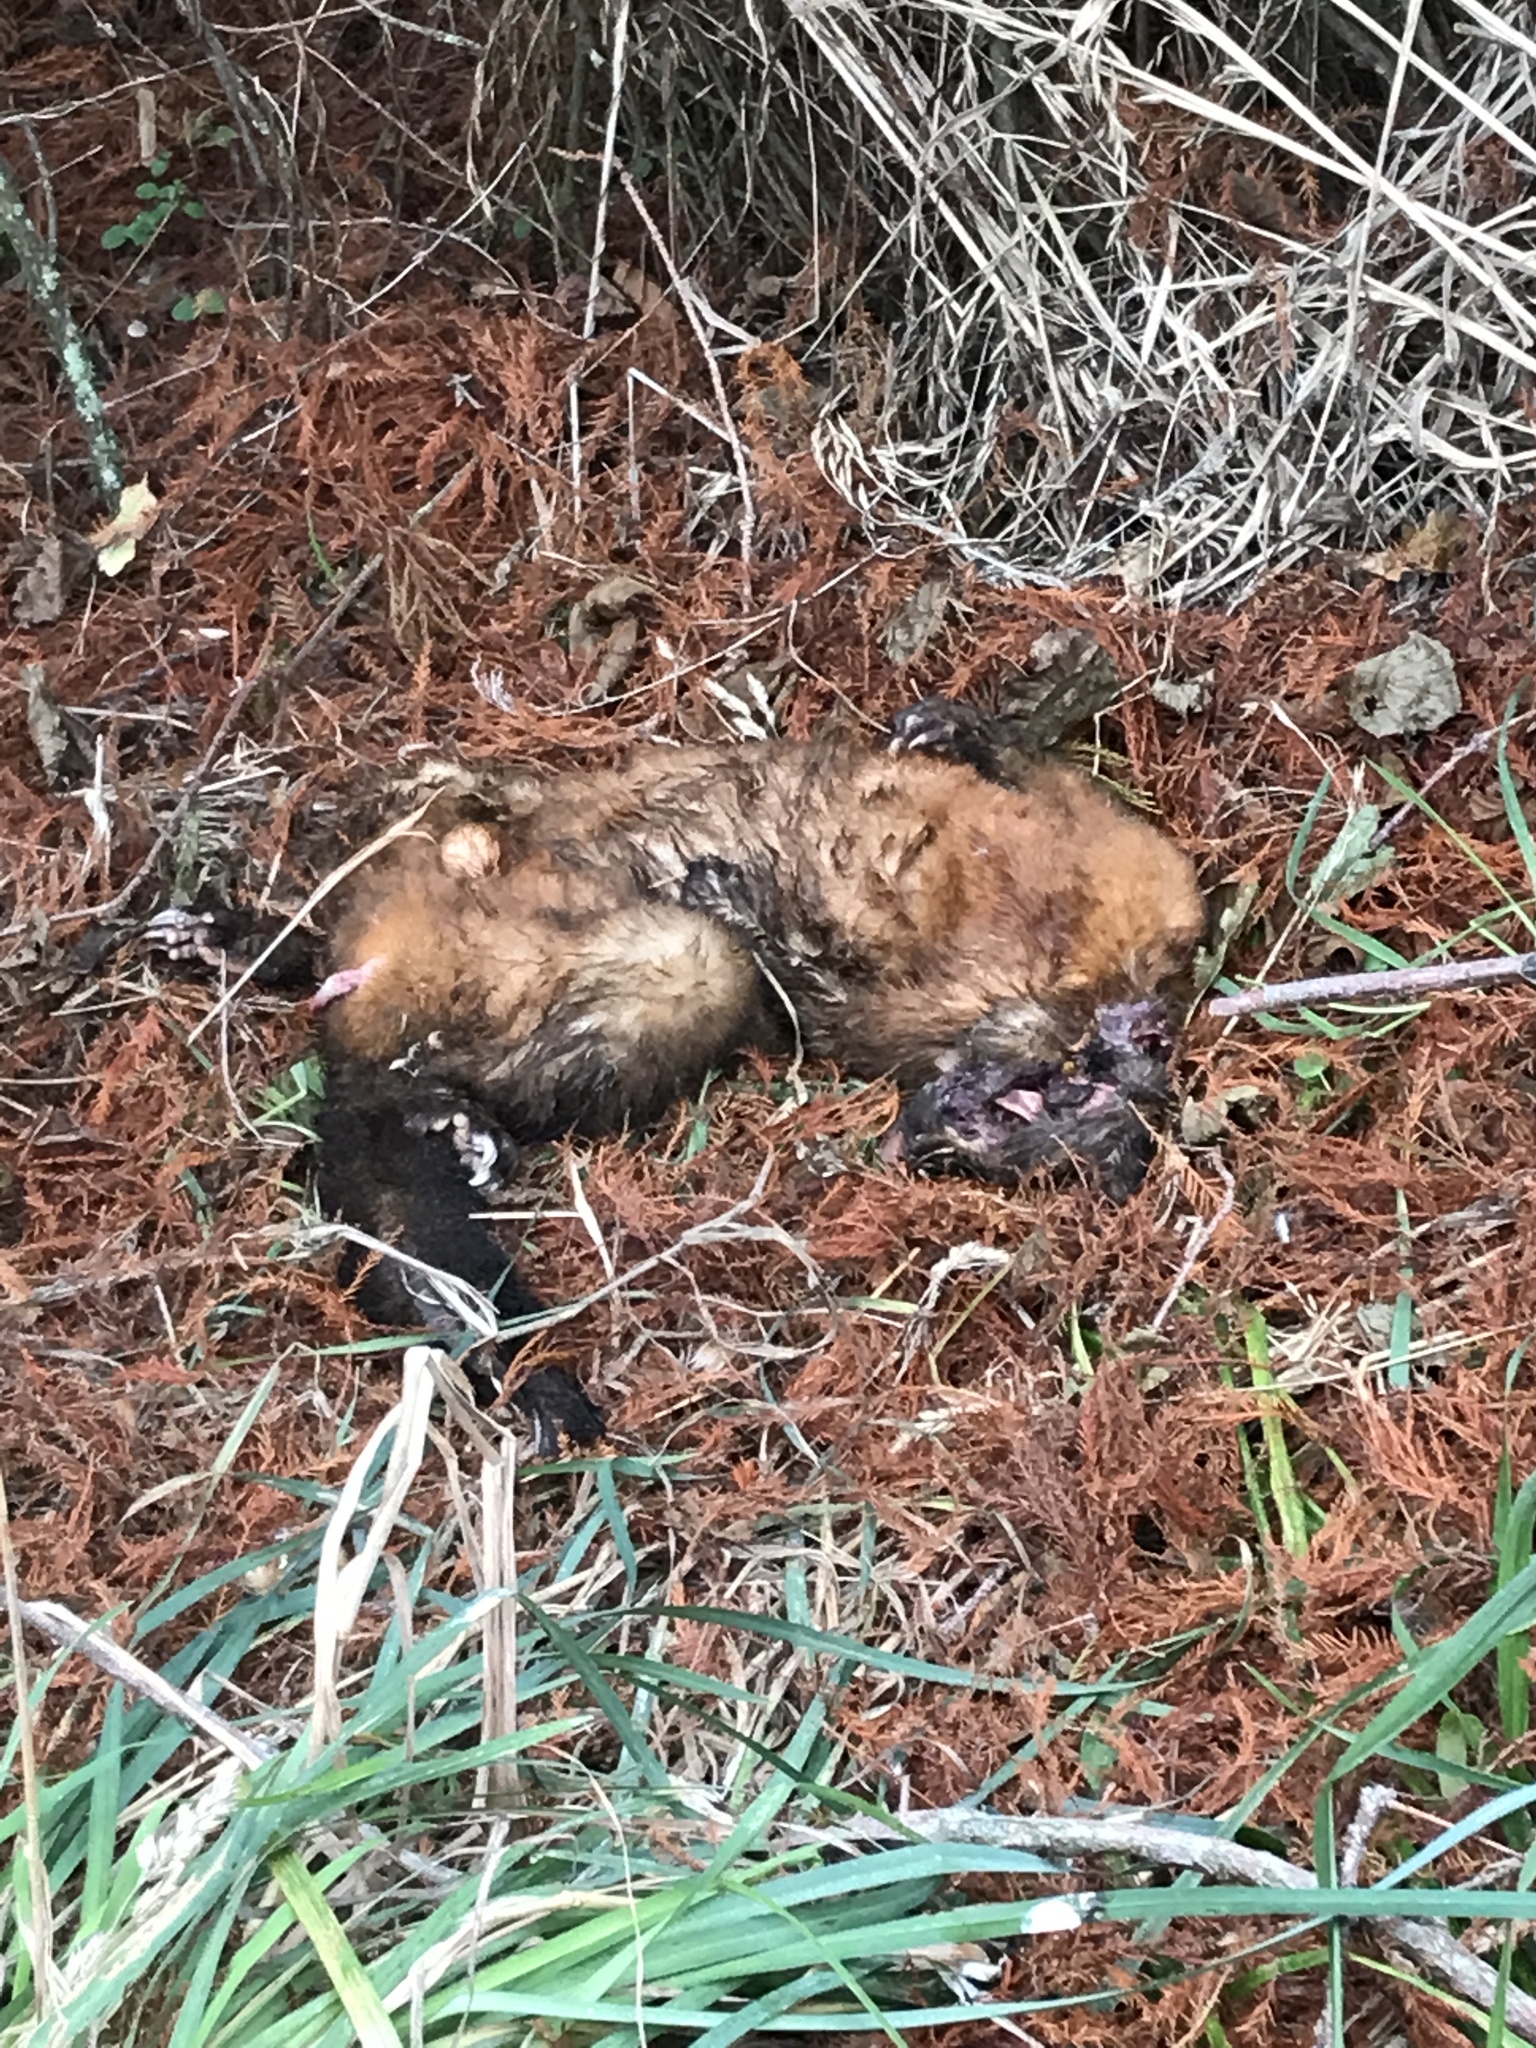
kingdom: Animalia
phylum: Chordata
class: Mammalia
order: Diprotodontia
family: Phalangeridae
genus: Trichosurus
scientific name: Trichosurus vulpecula
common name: Common brushtail
